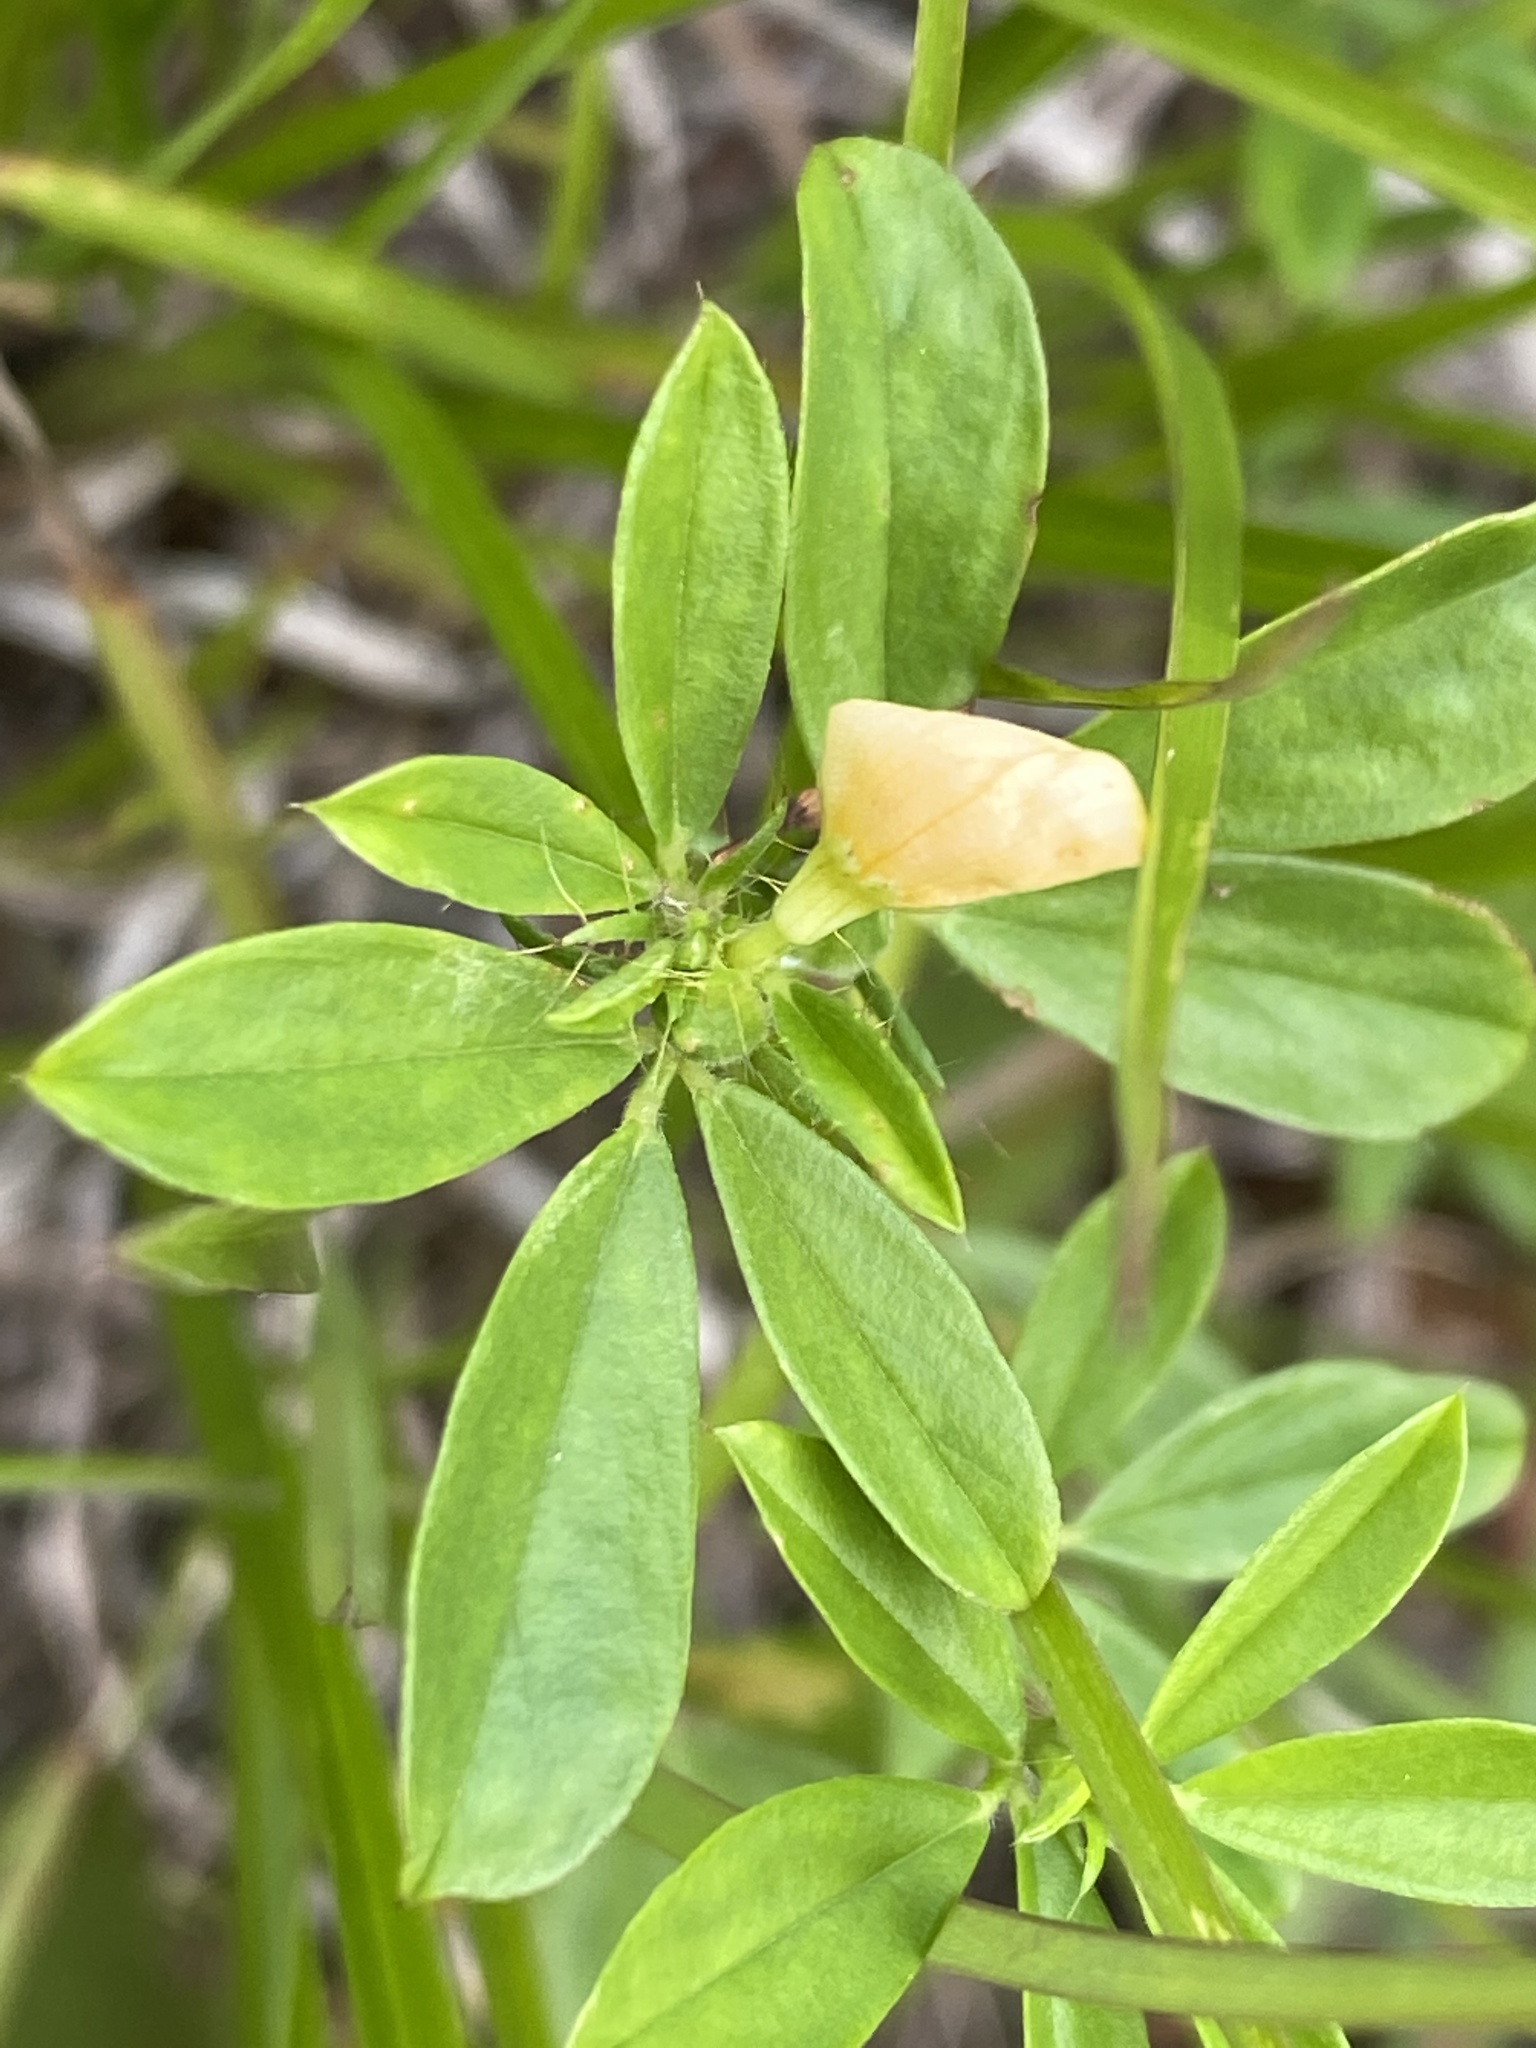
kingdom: Plantae
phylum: Tracheophyta
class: Magnoliopsida
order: Fabales
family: Fabaceae
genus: Stylosanthes
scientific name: Stylosanthes biflora
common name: Two-flower pencil-flower
